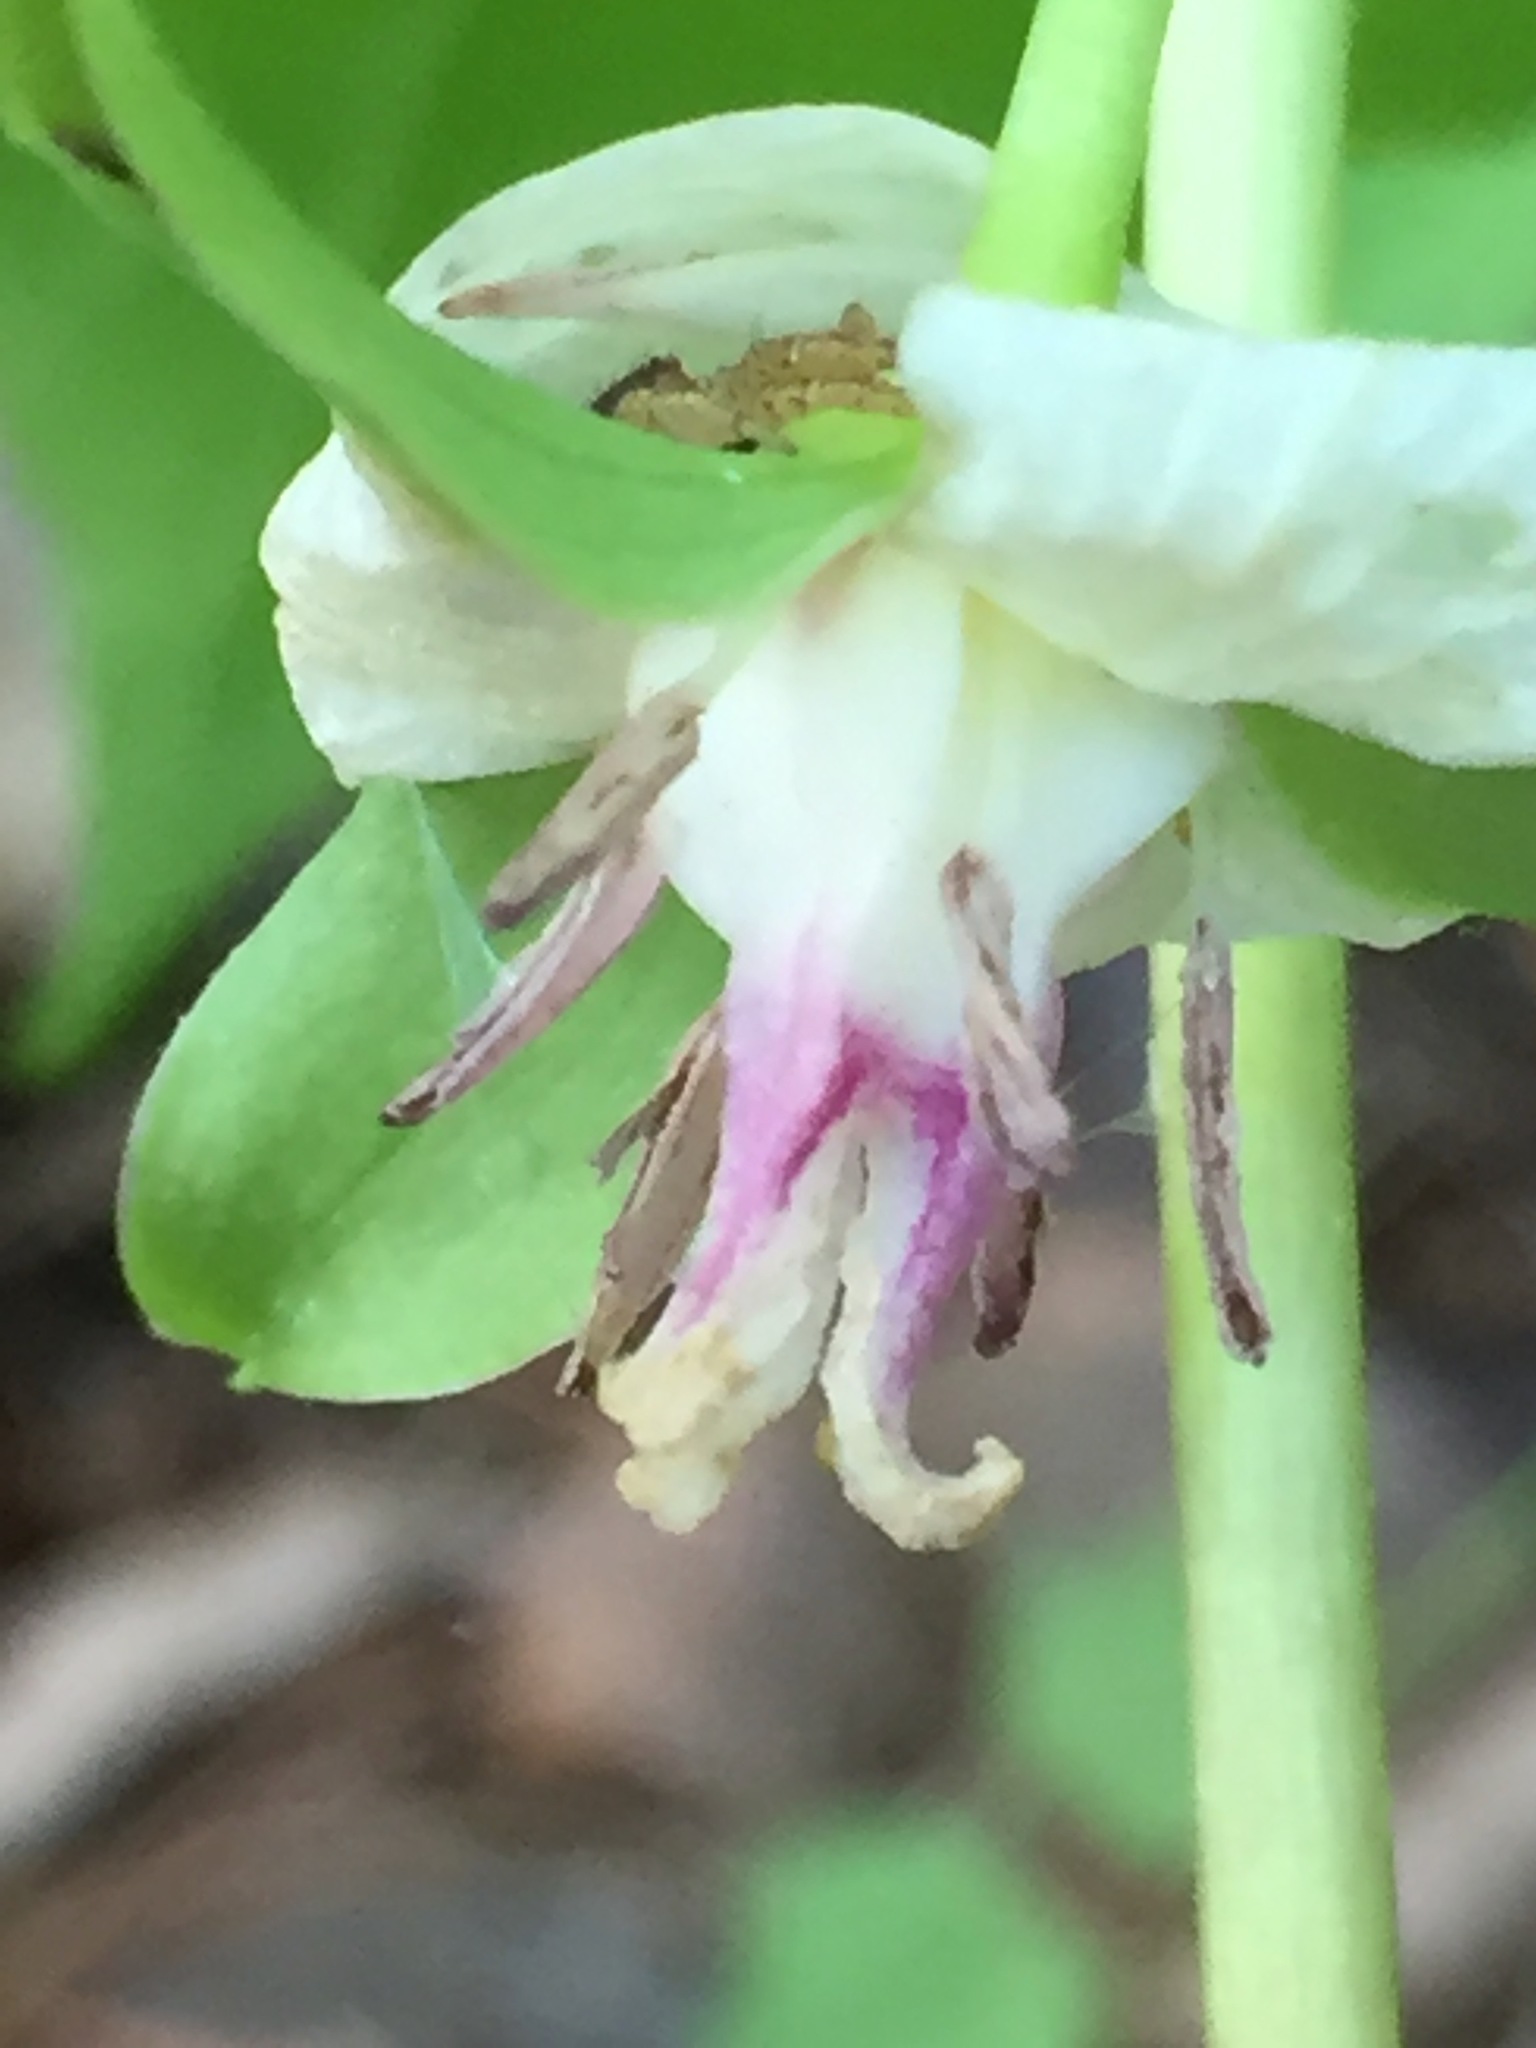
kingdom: Plantae
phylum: Tracheophyta
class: Liliopsida
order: Liliales
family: Melanthiaceae
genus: Trillium
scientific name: Trillium cernuum
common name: Nodding trillium
